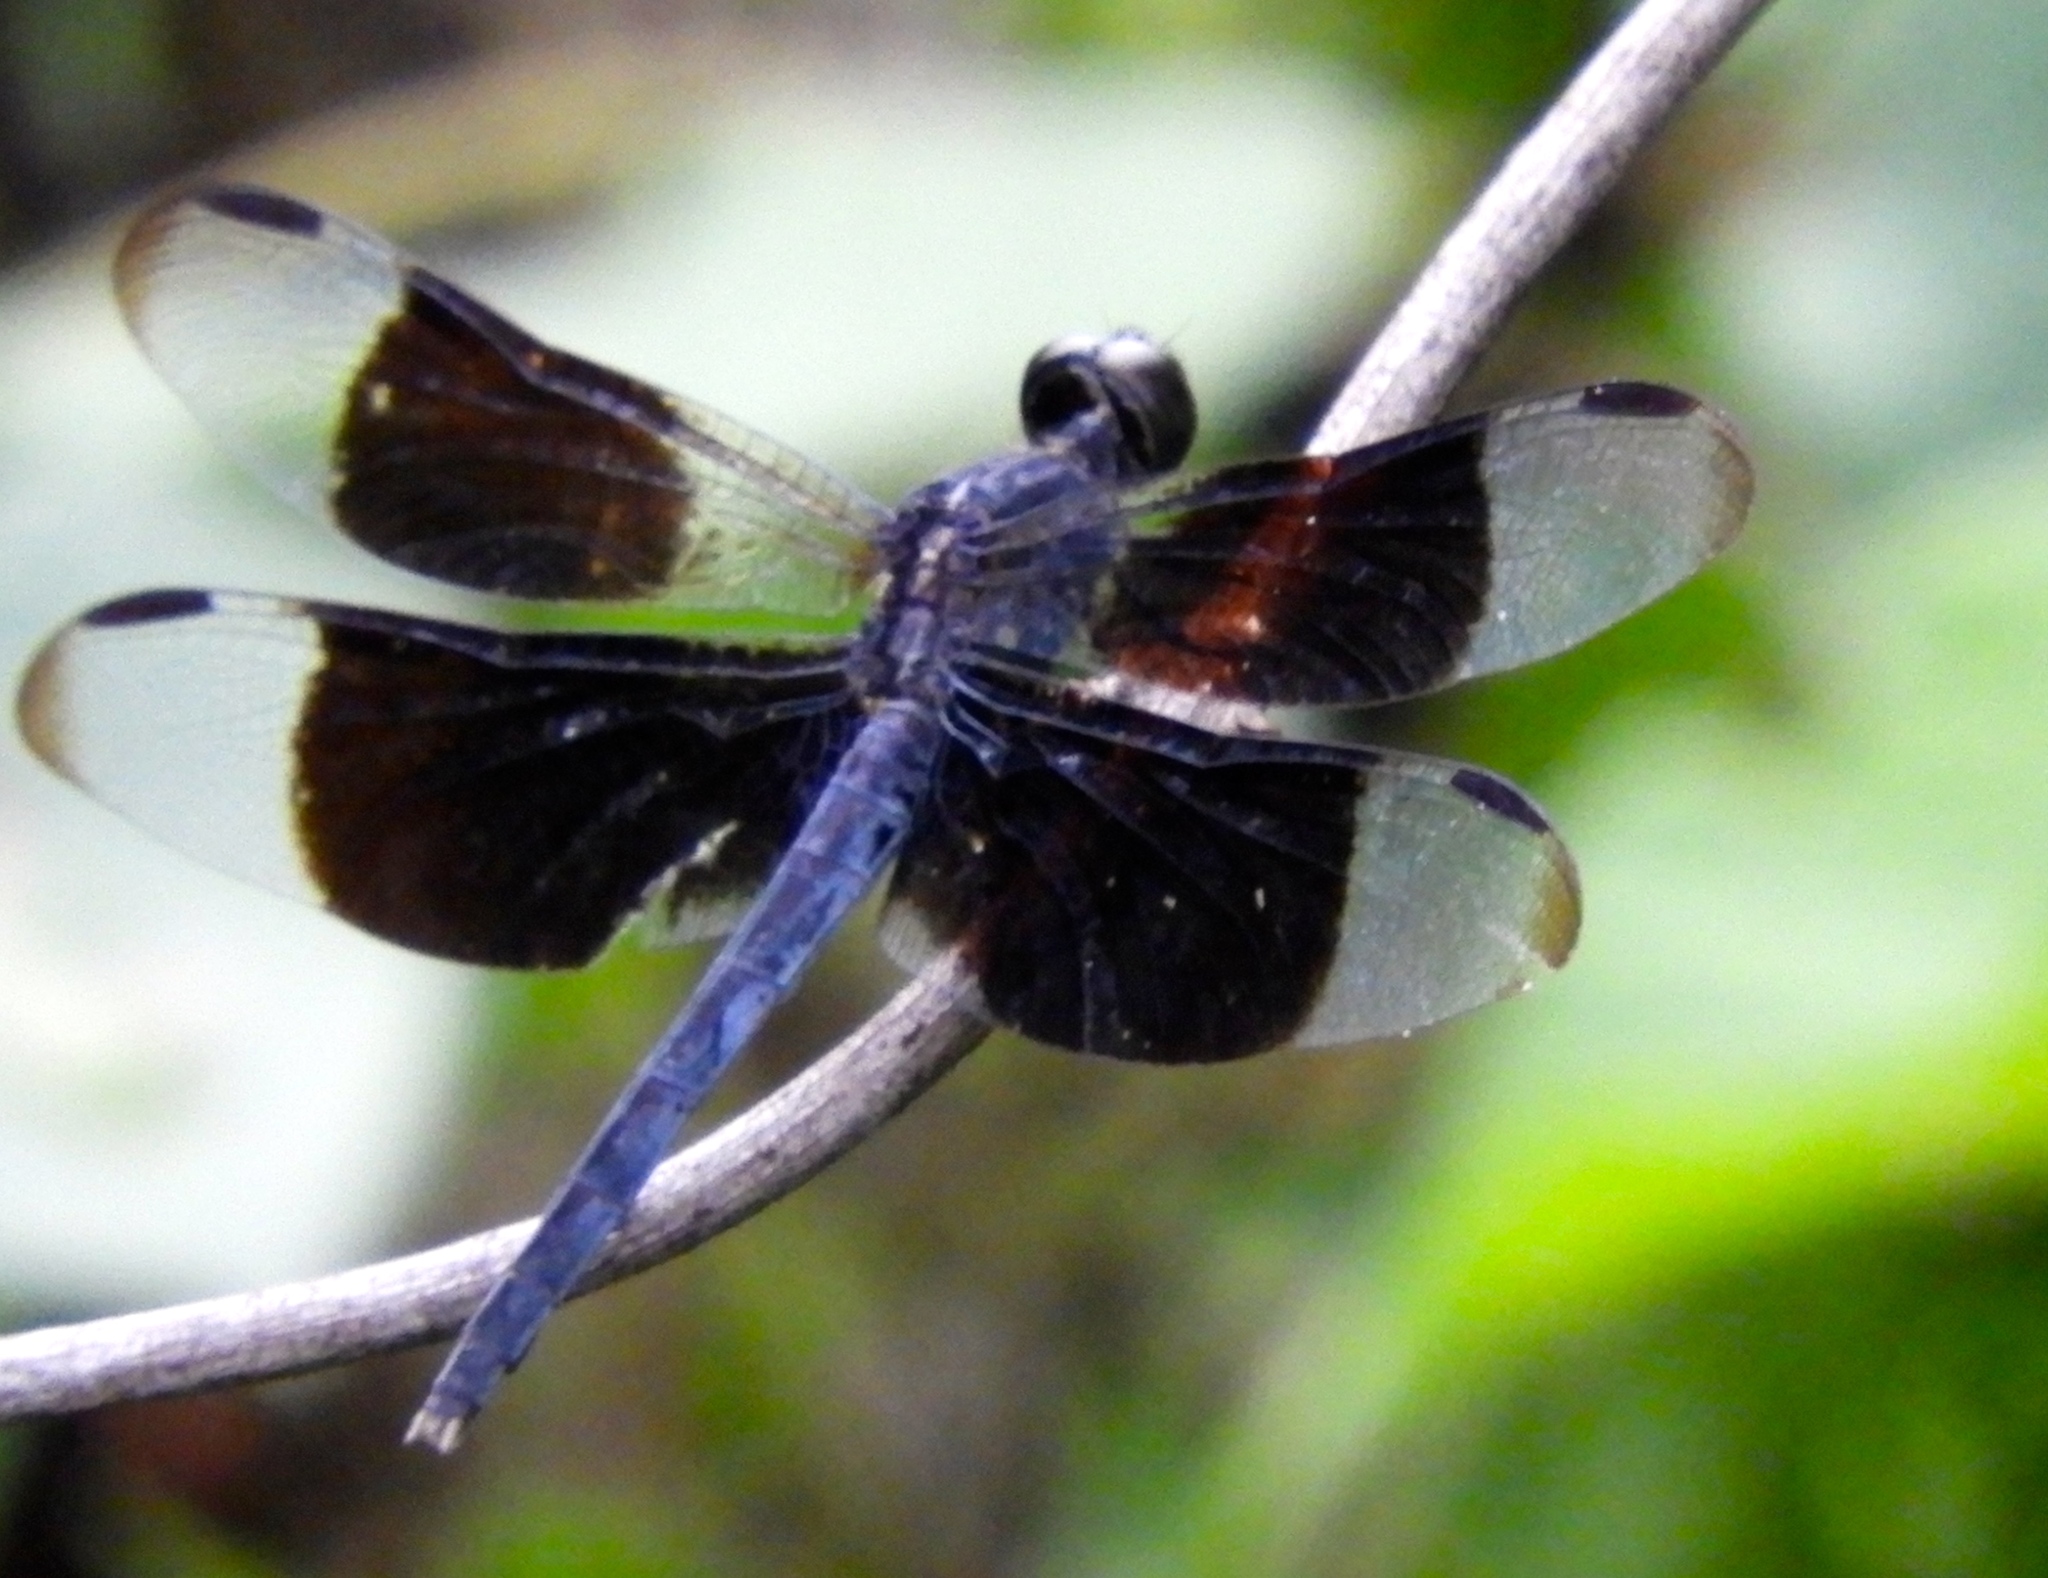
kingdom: Animalia
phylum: Arthropoda
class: Insecta
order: Odonata
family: Libellulidae
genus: Erythrodiplax
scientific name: Erythrodiplax funerea
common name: Black-winged dragonlet
